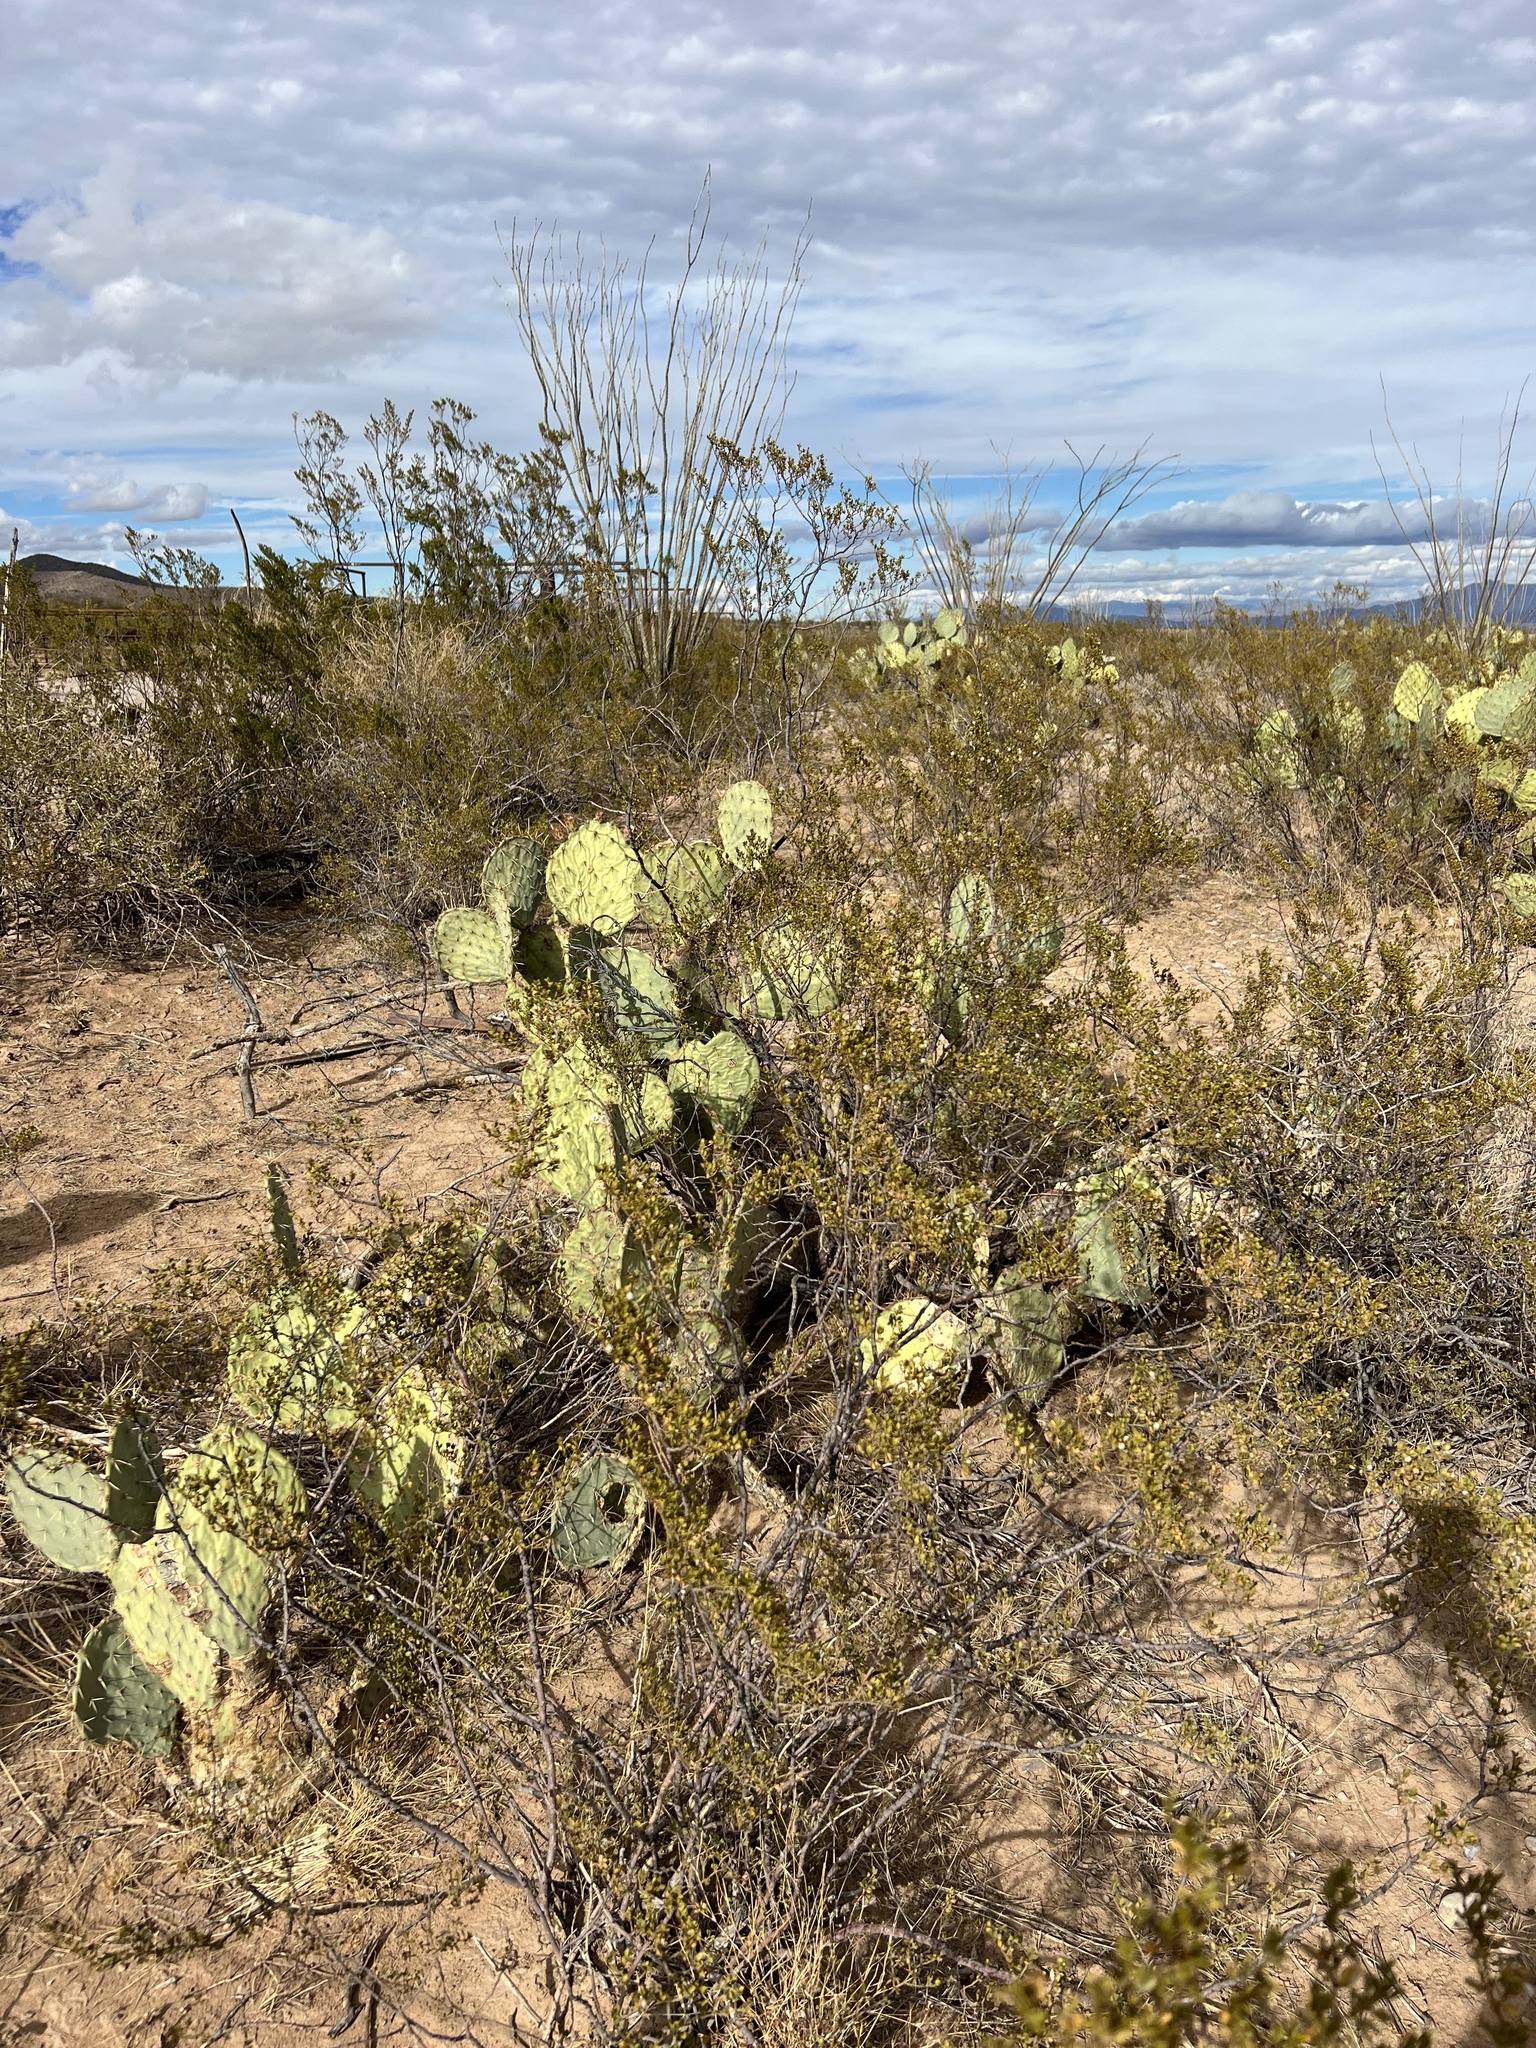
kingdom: Plantae
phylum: Tracheophyta
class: Magnoliopsida
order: Zygophyllales
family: Zygophyllaceae
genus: Larrea
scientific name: Larrea tridentata
